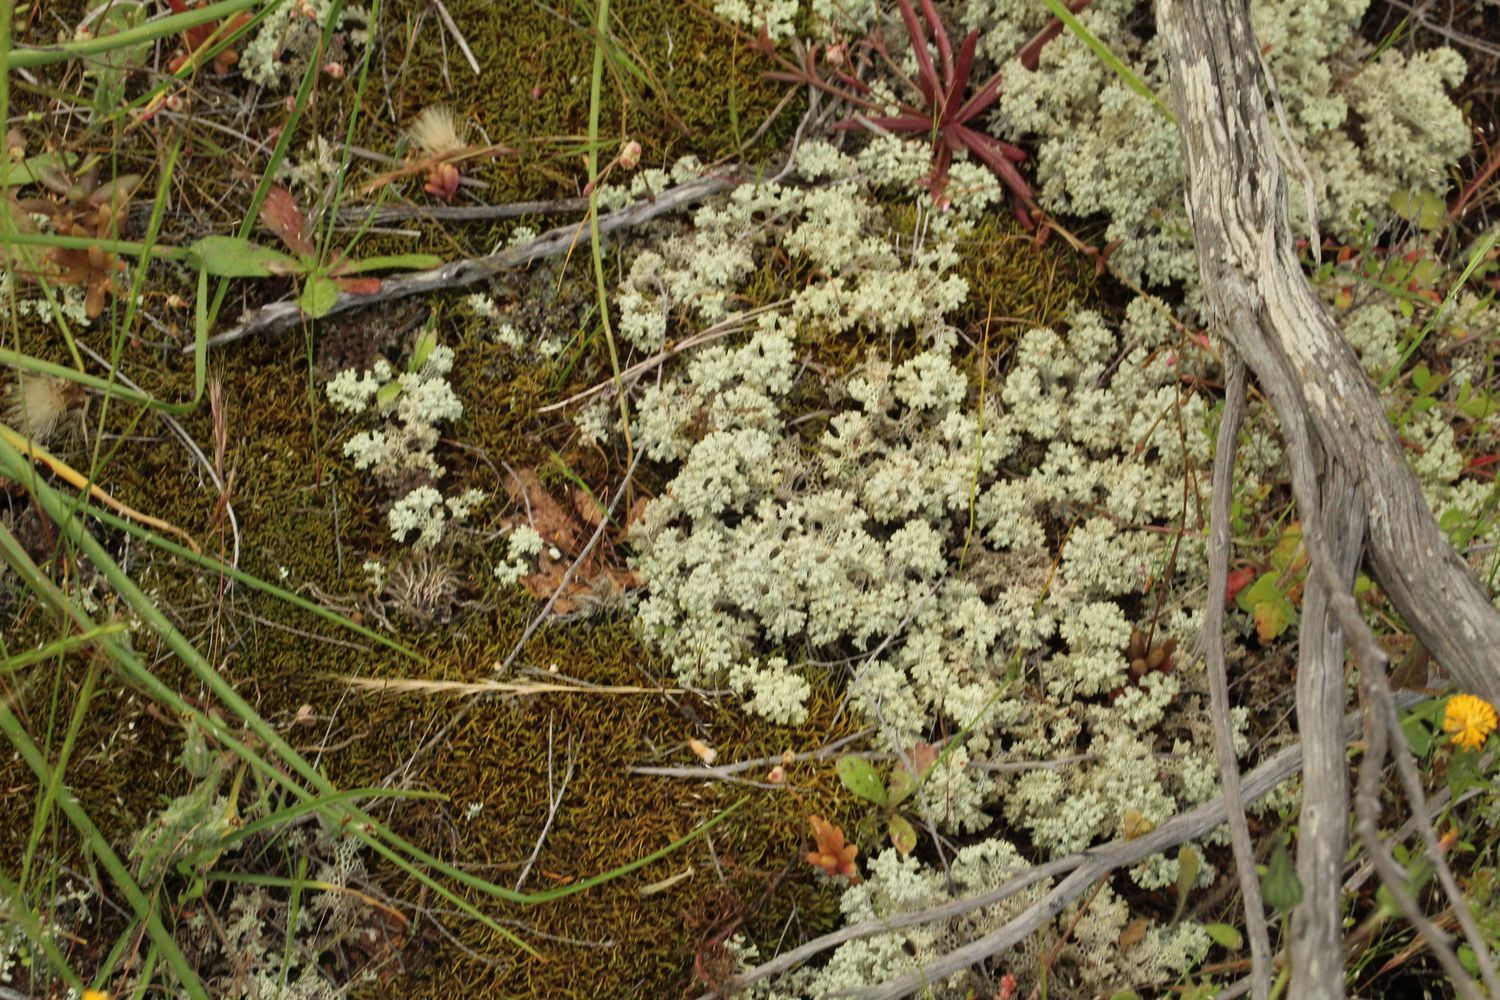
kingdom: Fungi
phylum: Ascomycota
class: Lecanoromycetes
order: Lecanorales
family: Cladoniaceae
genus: Pulchrocladia
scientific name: Pulchrocladia ferdinandii
